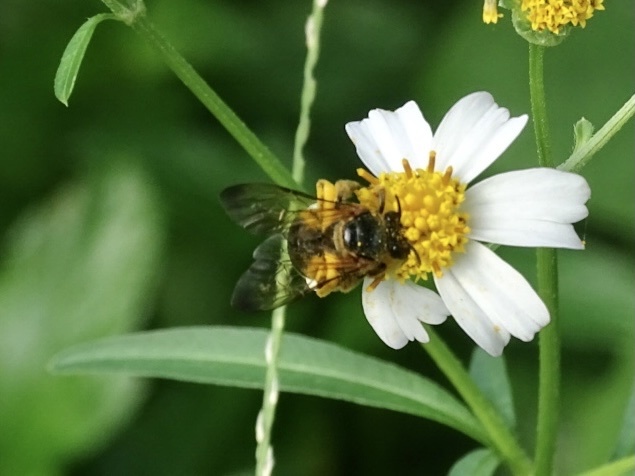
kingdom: Animalia
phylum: Arthropoda
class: Insecta
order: Hymenoptera
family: Halictidae
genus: Lipotriches
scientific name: Lipotriches saussurei
